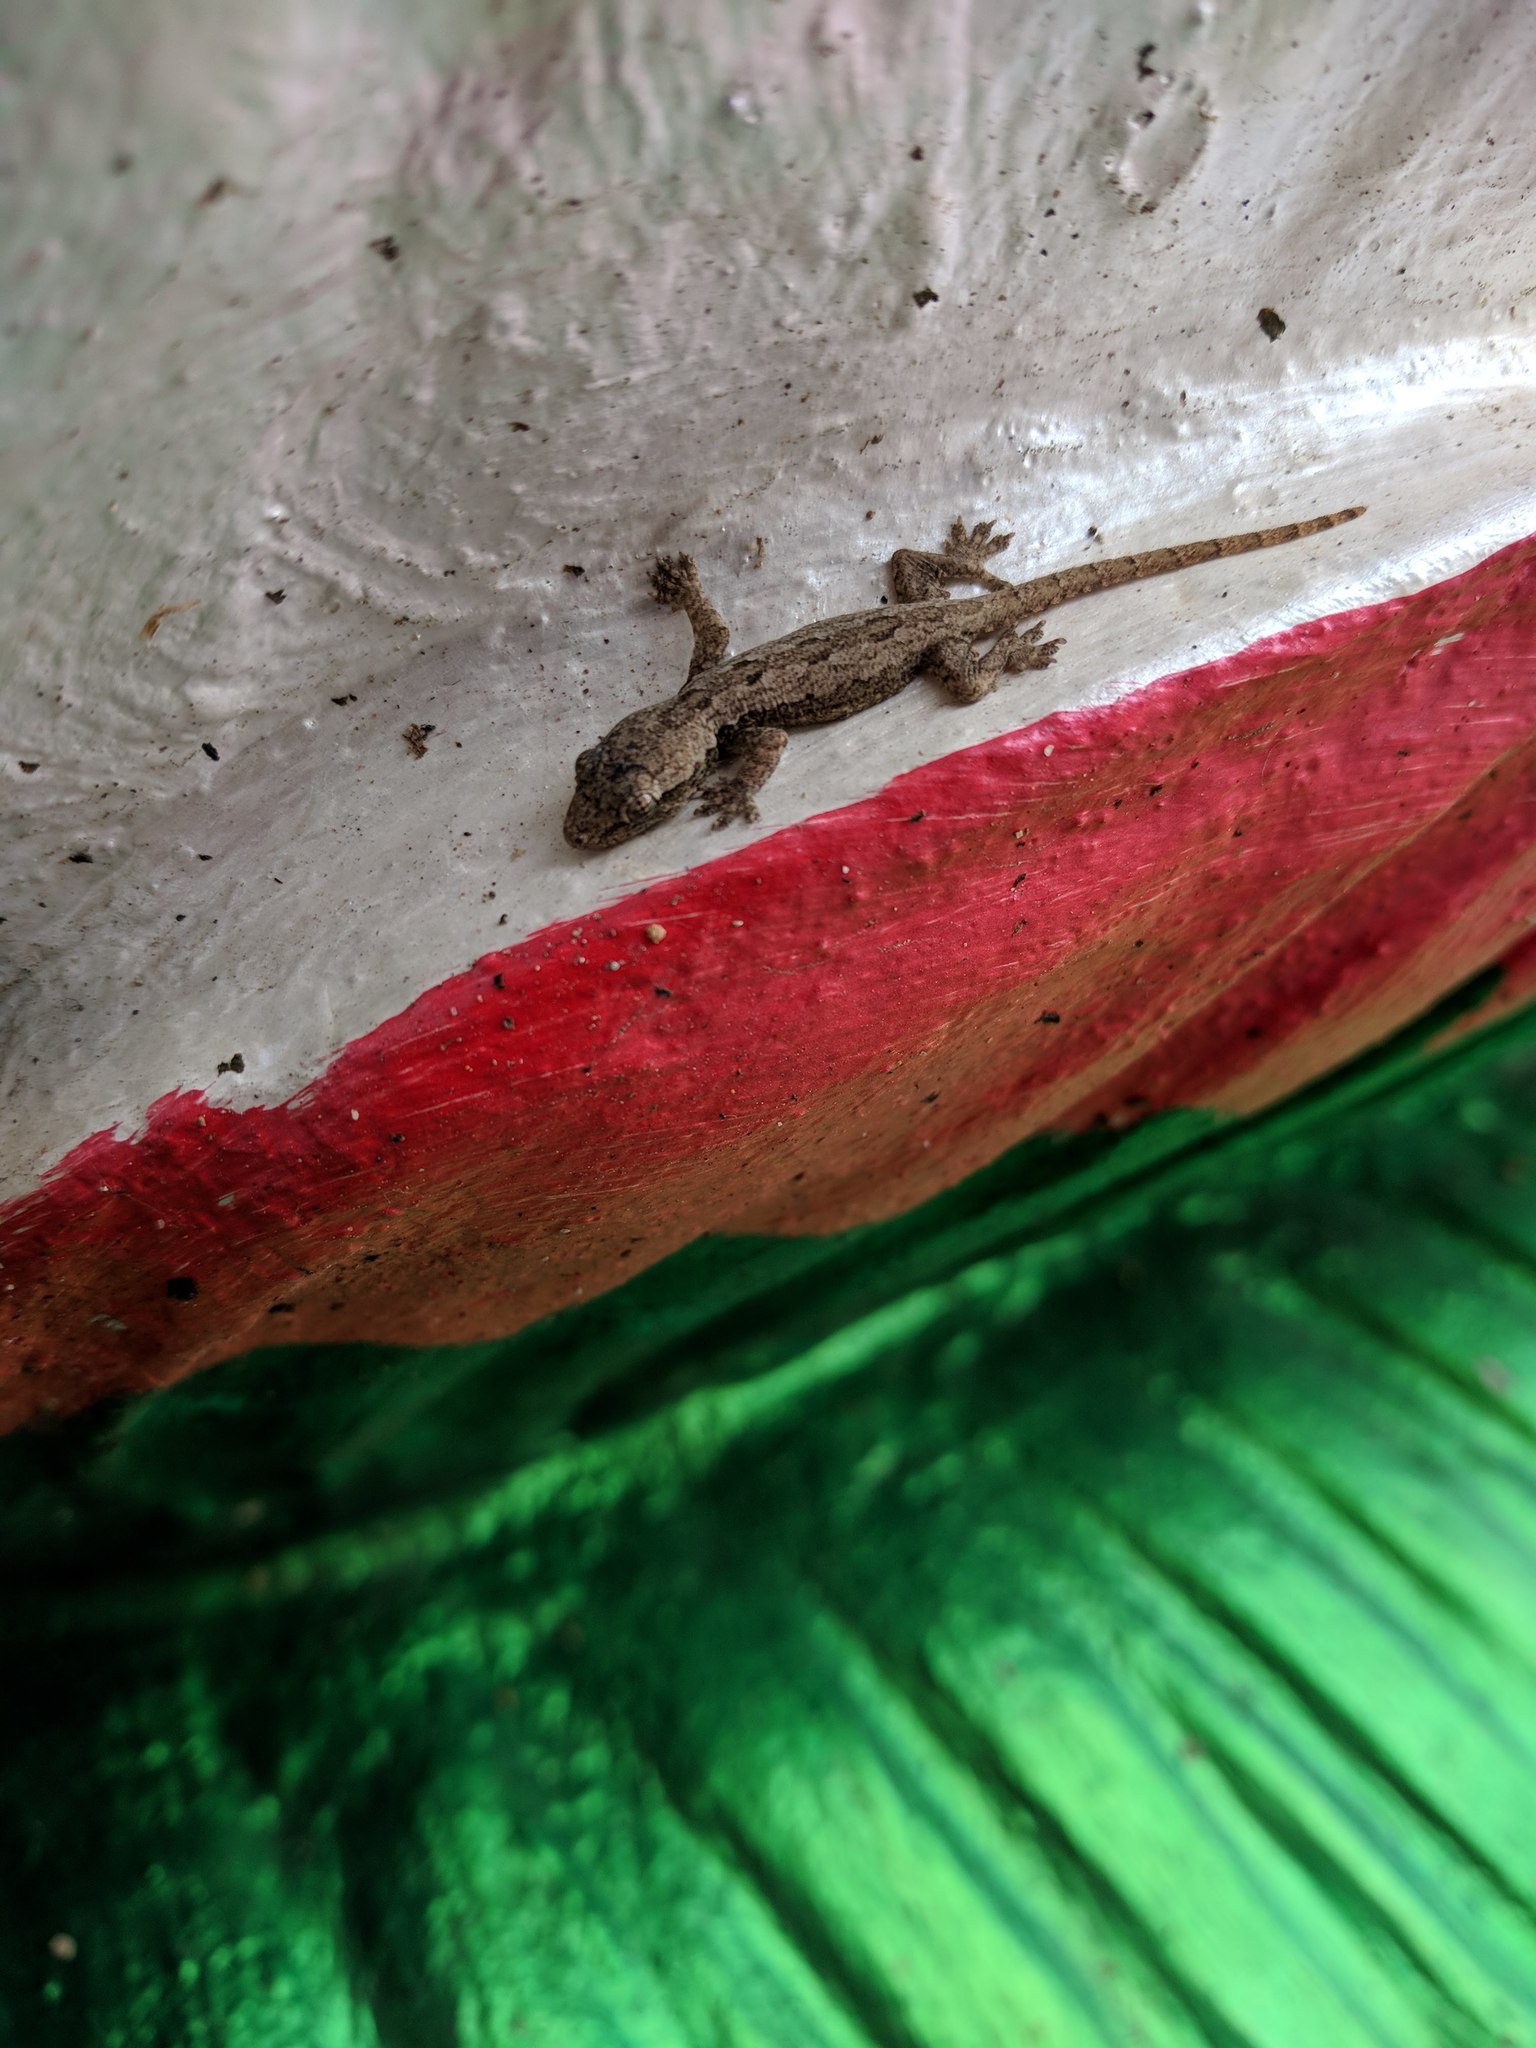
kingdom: Animalia
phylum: Chordata
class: Squamata
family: Gekkonidae
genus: Hemidactylus
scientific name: Hemidactylus platyurus
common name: Flat-tailed house gecko
